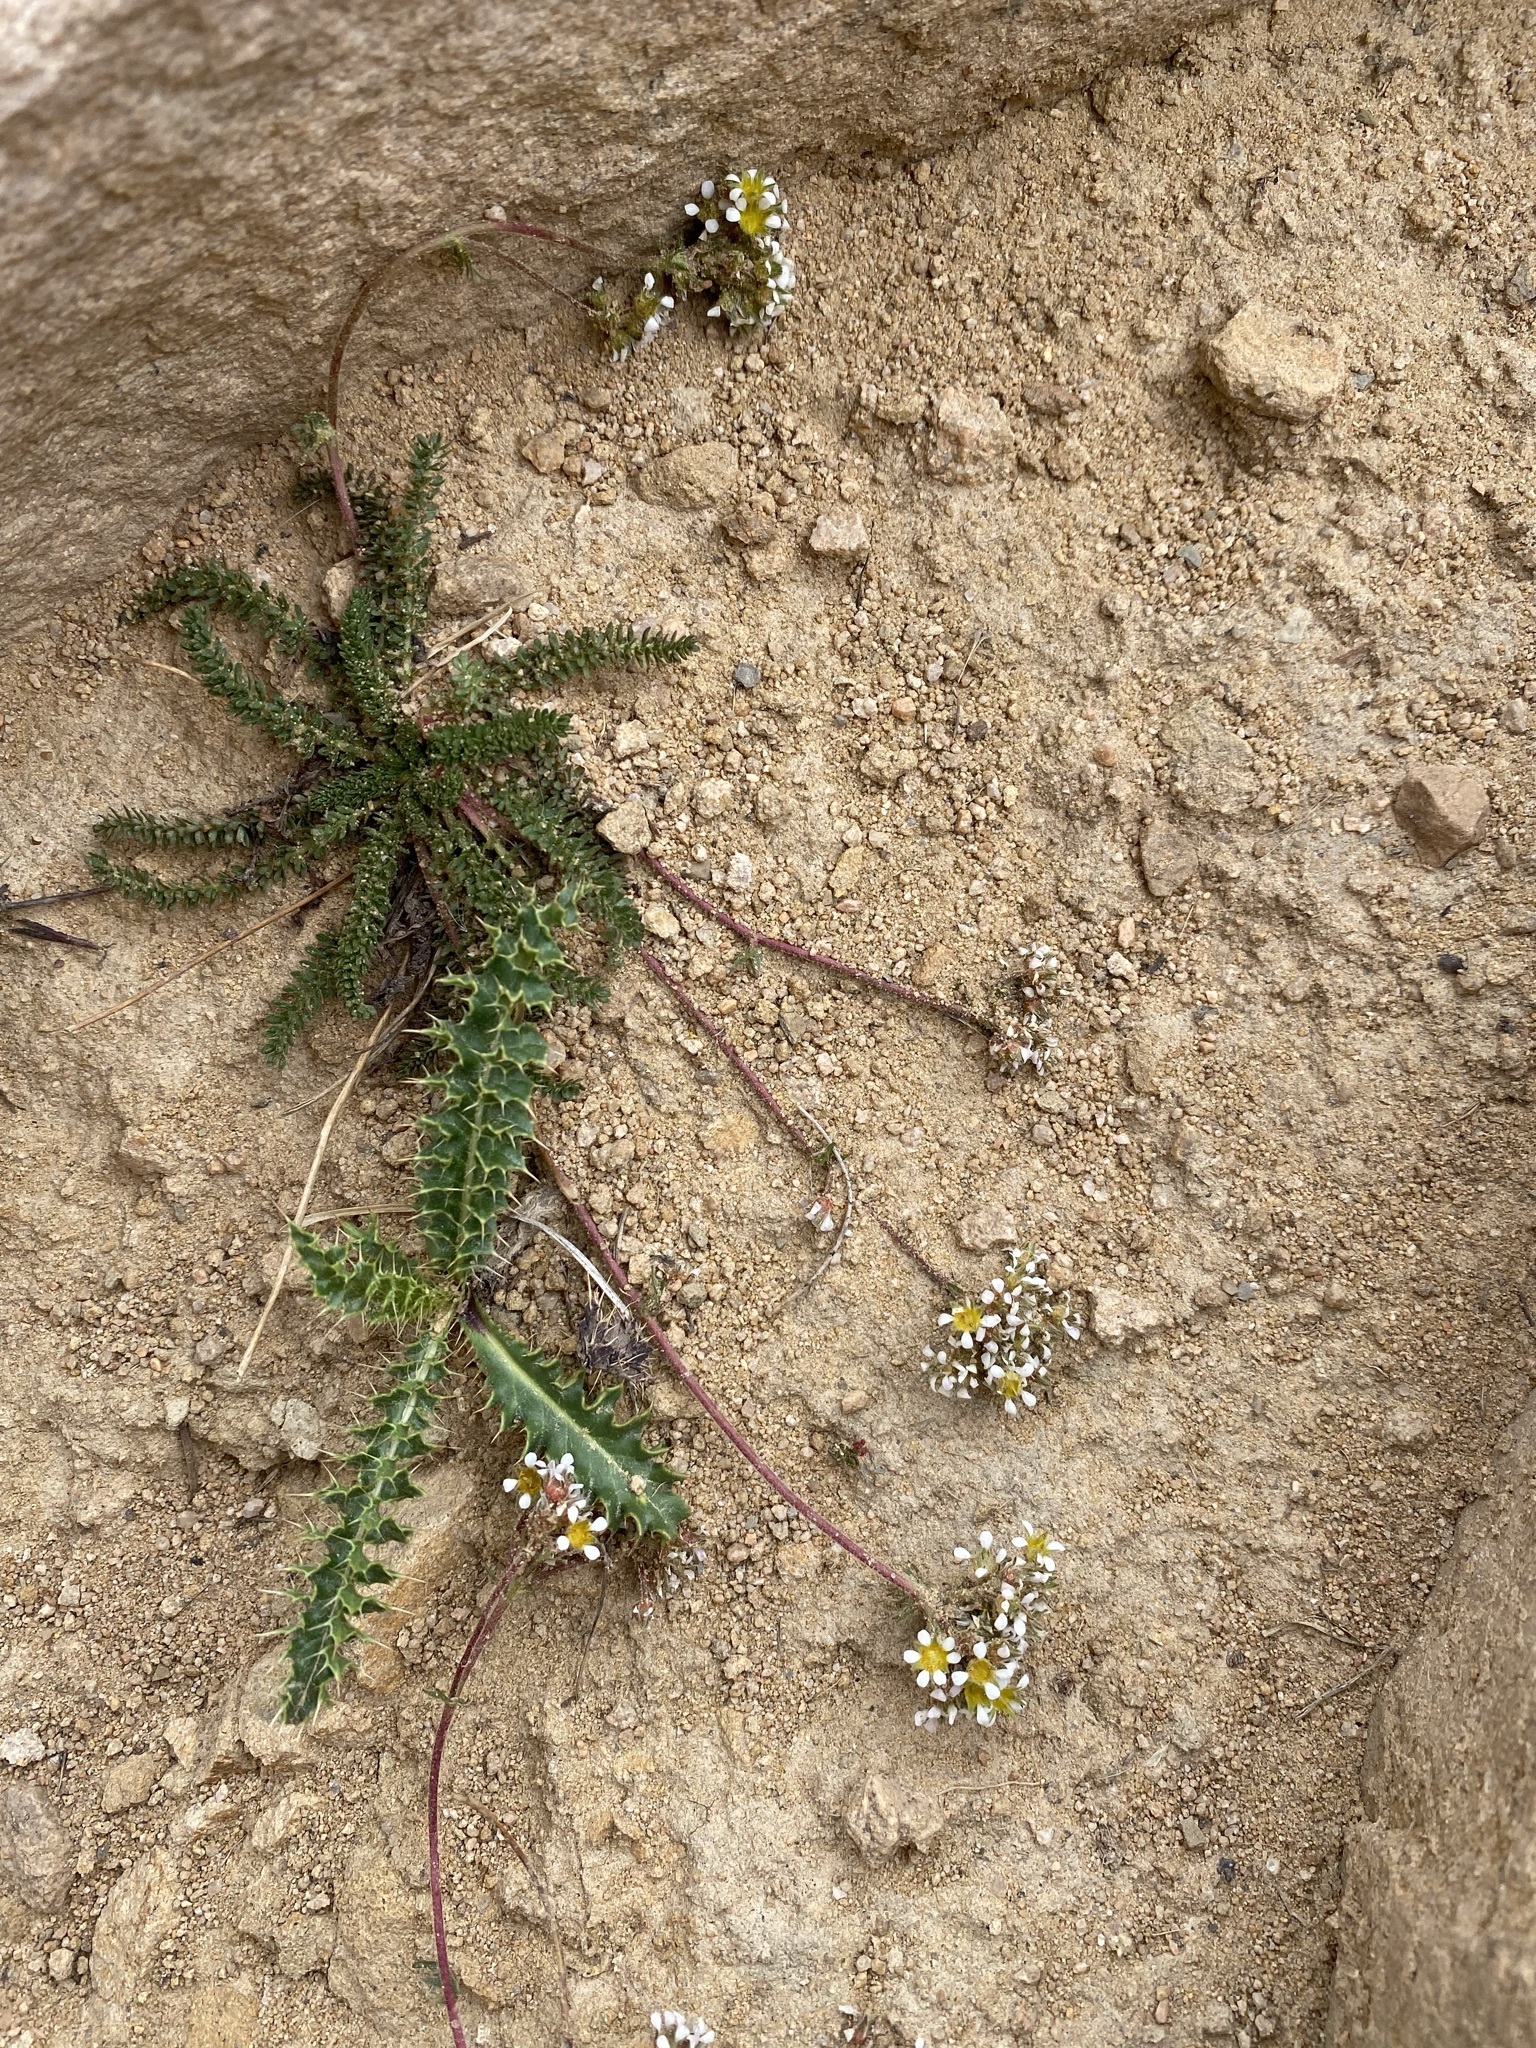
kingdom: Plantae
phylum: Tracheophyta
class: Magnoliopsida
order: Rosales
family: Rosaceae
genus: Potentilla
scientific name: Potentilla utahensis
